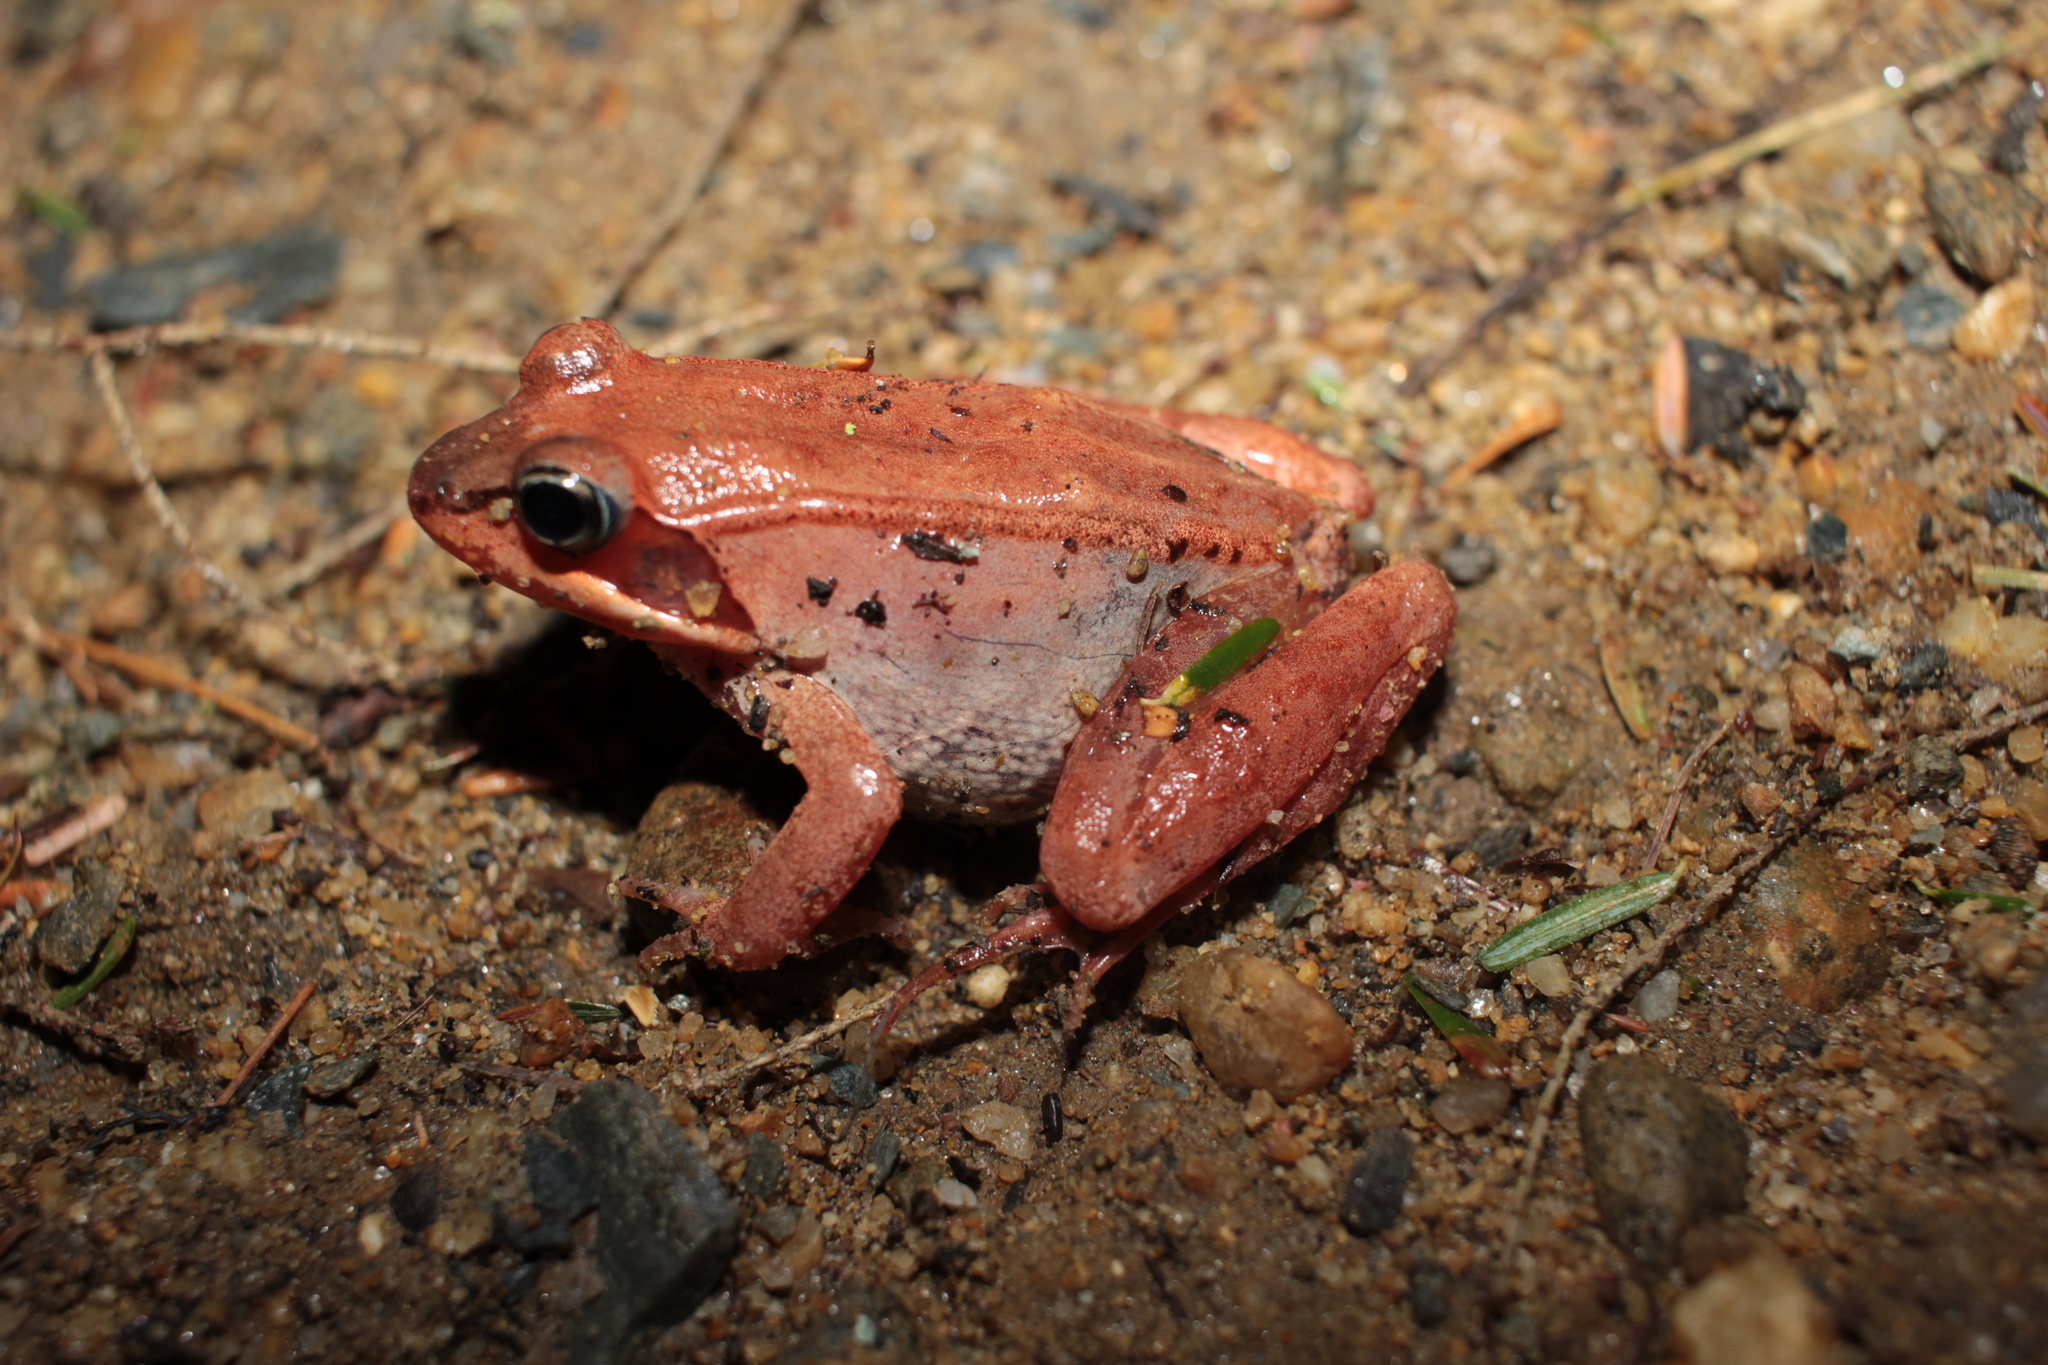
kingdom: Animalia
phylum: Chordata
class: Amphibia
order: Anura
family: Ranidae
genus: Lithobates
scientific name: Lithobates sylvaticus
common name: Wood frog
